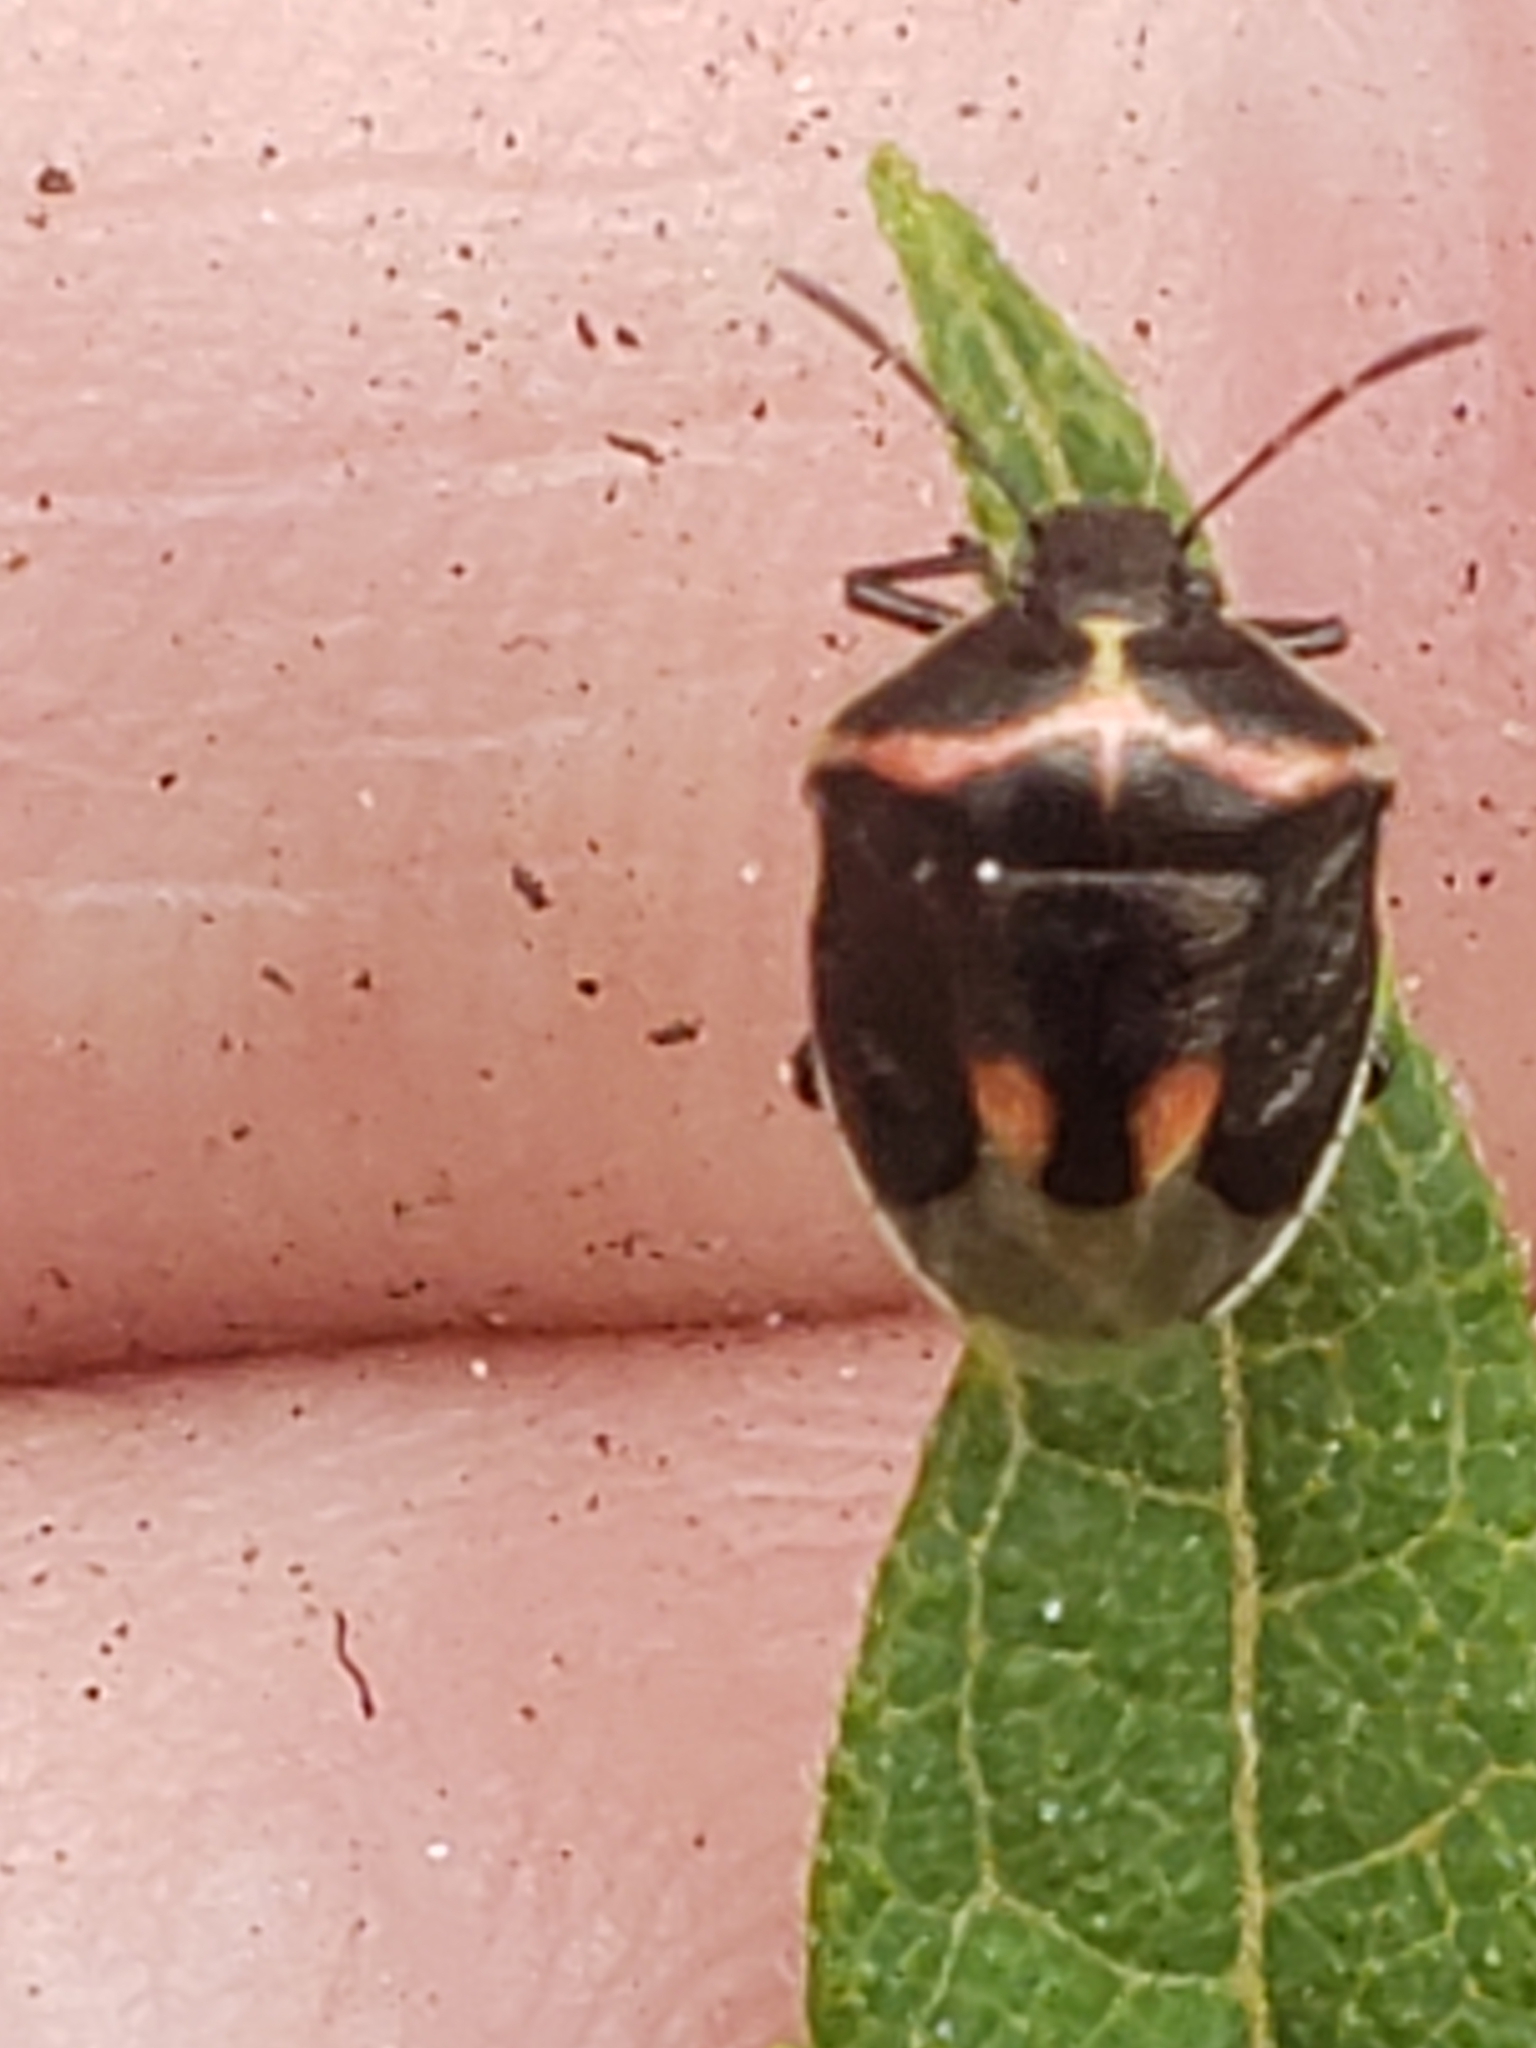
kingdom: Animalia
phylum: Arthropoda
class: Insecta
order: Hemiptera
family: Pentatomidae
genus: Cosmopepla
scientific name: Cosmopepla lintneriana
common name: Twice-stabbed stink bug
